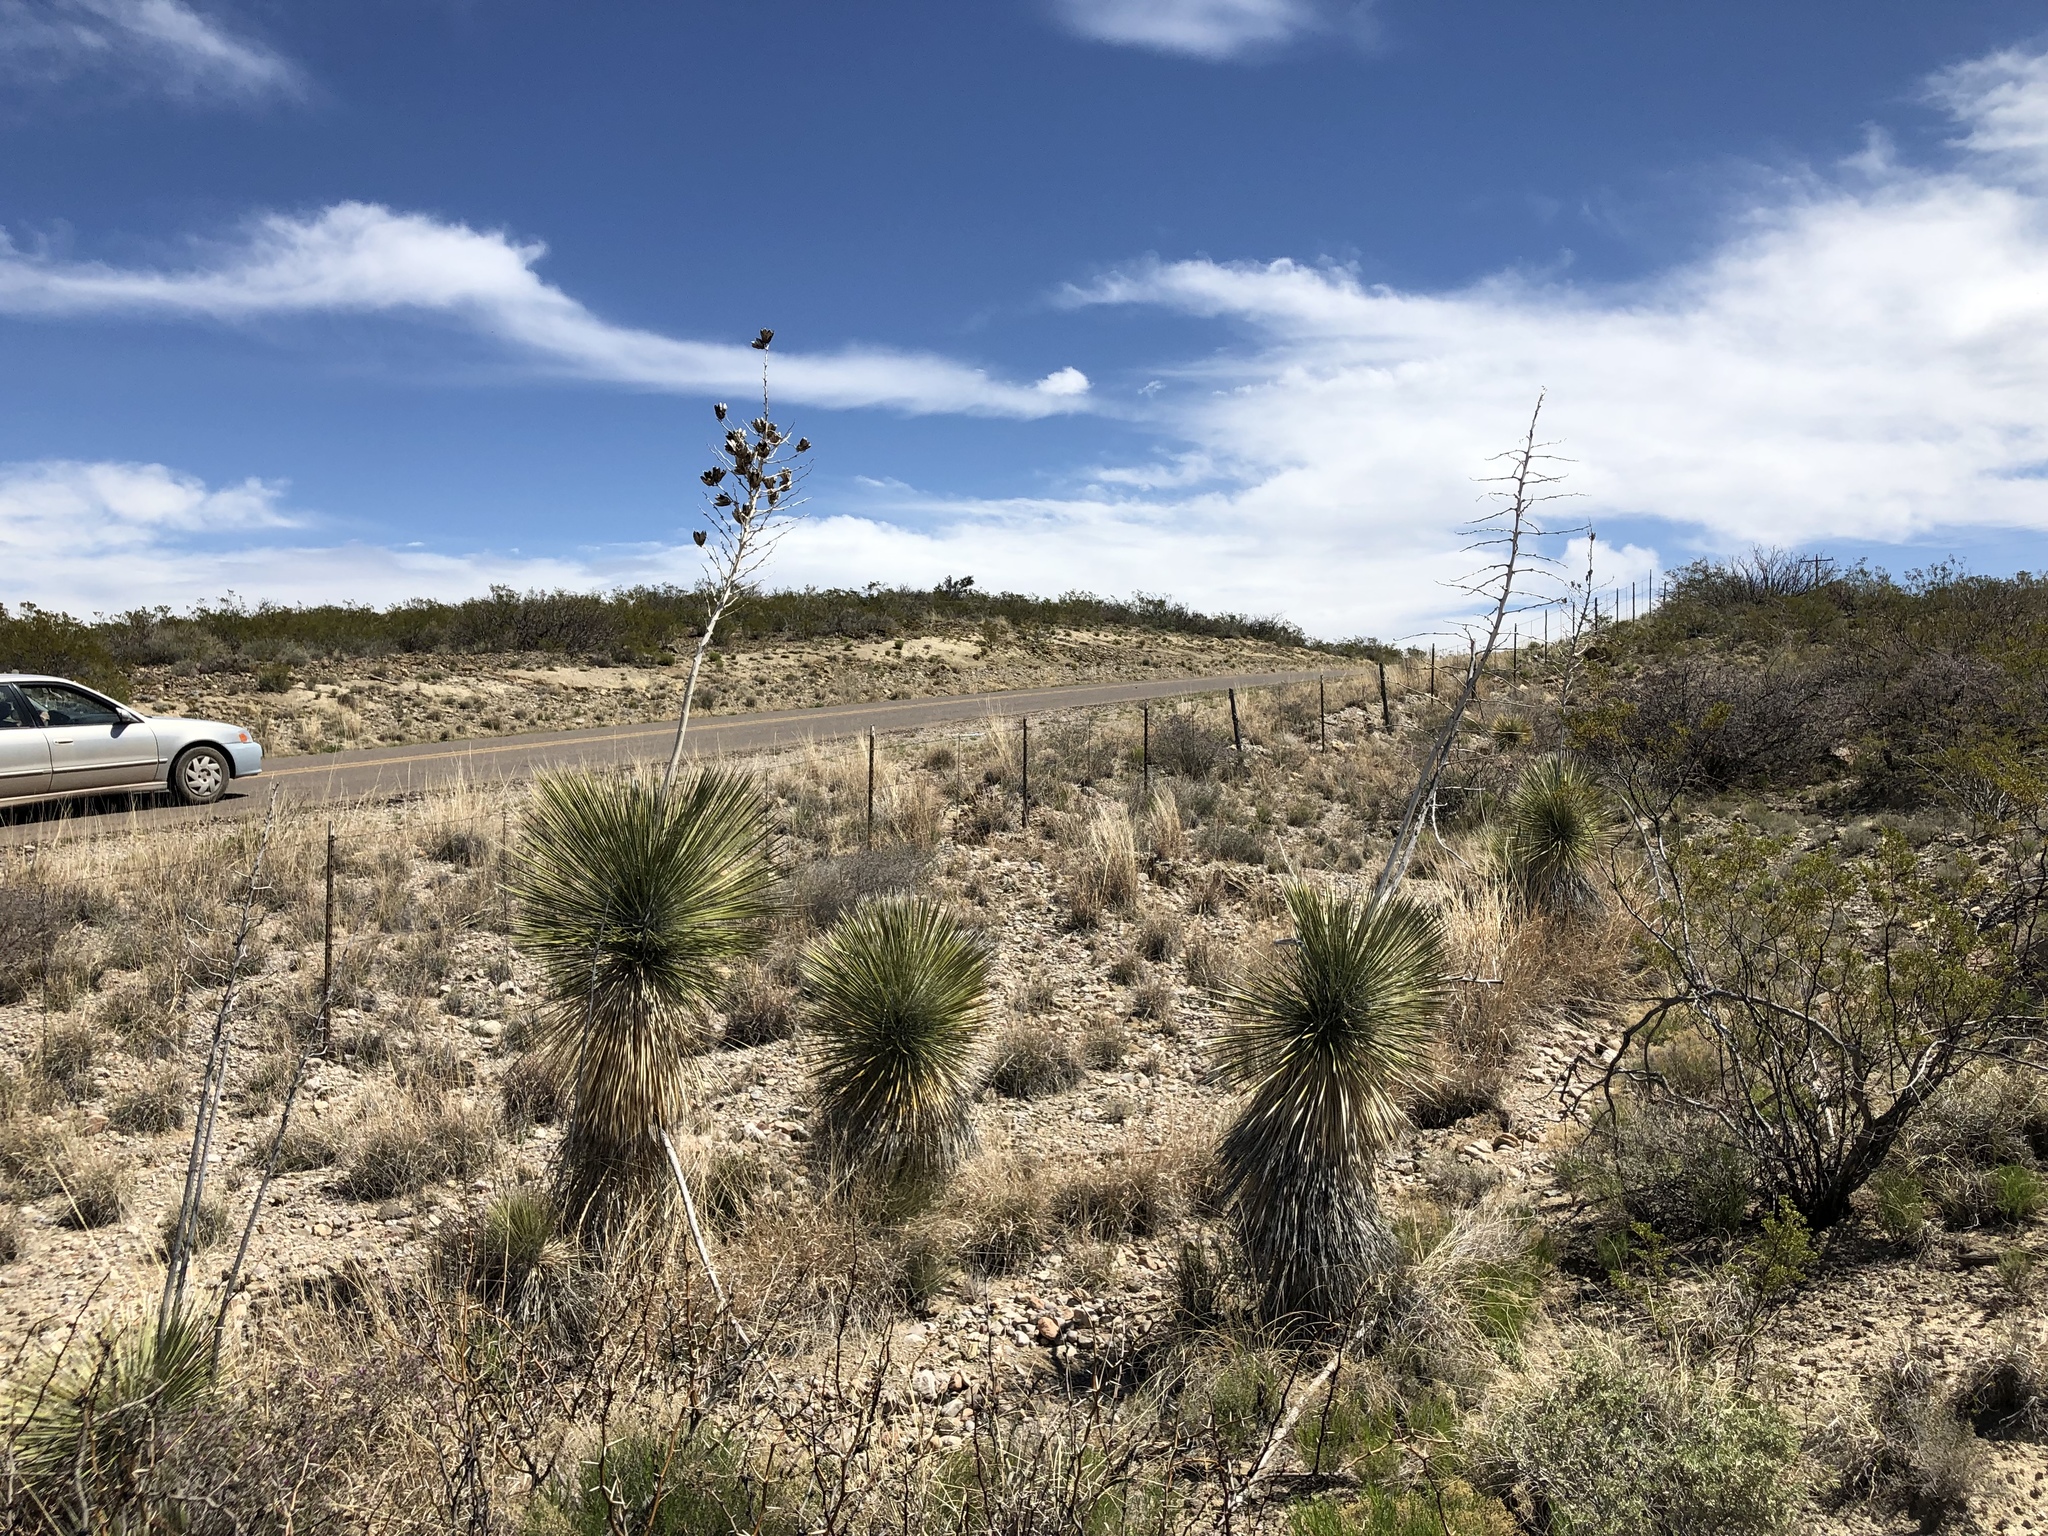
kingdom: Plantae
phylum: Tracheophyta
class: Liliopsida
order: Asparagales
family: Asparagaceae
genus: Yucca
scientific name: Yucca elata
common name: Palmella
